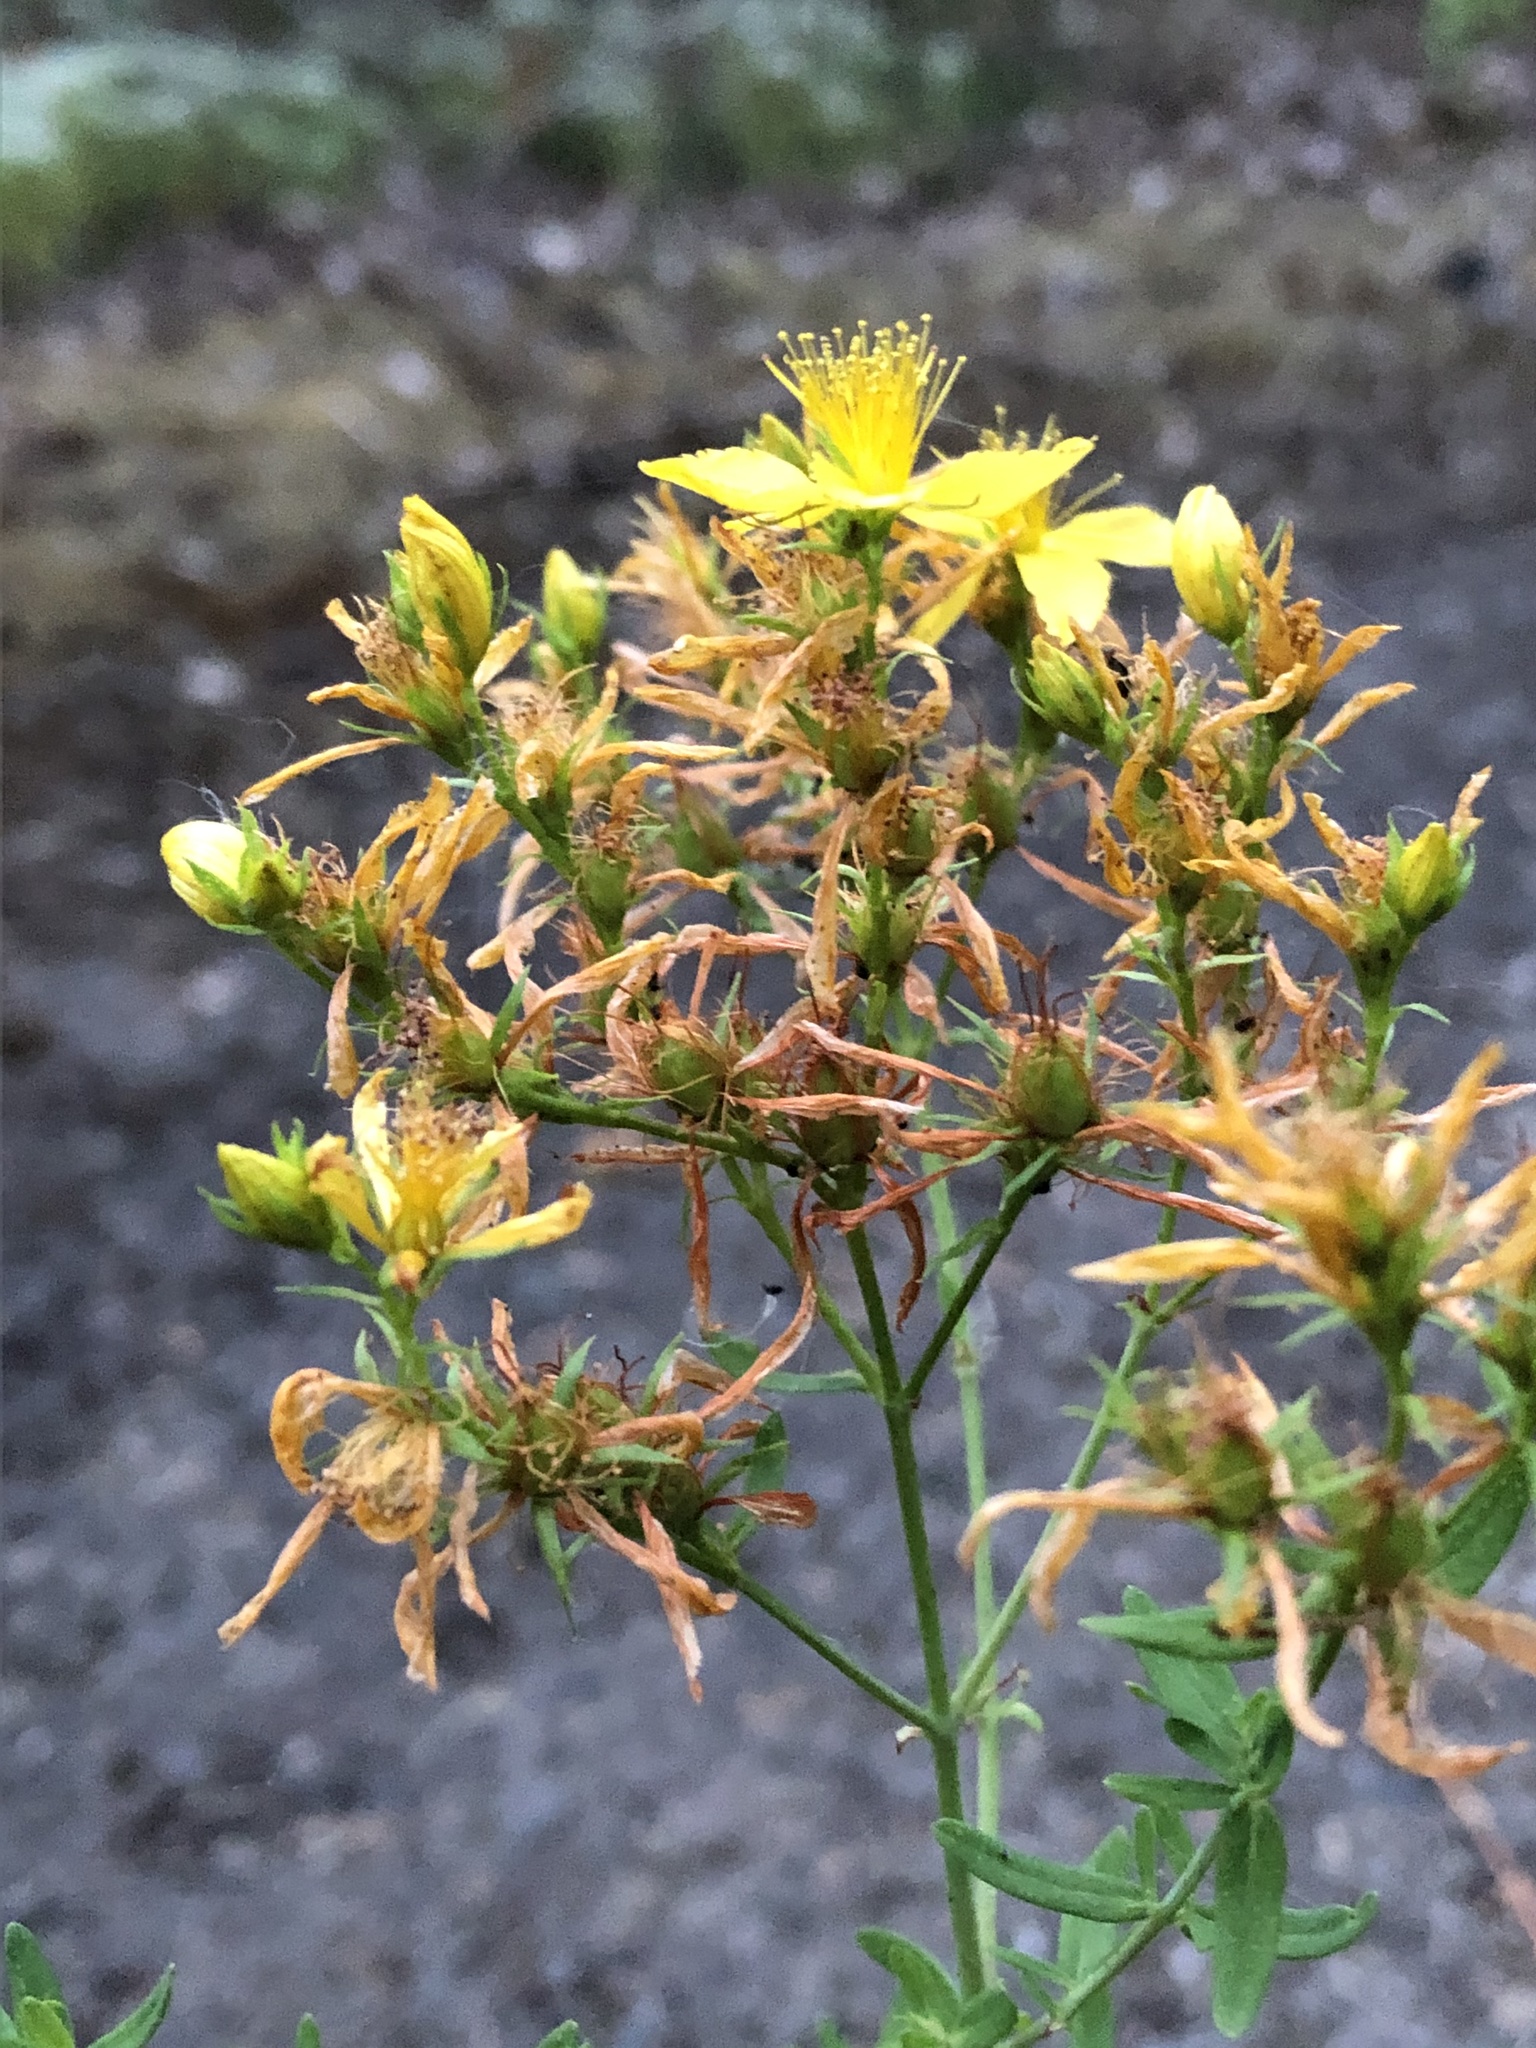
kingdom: Plantae
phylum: Tracheophyta
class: Magnoliopsida
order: Malpighiales
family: Hypericaceae
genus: Hypericum
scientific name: Hypericum perforatum
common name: Common st. johnswort
